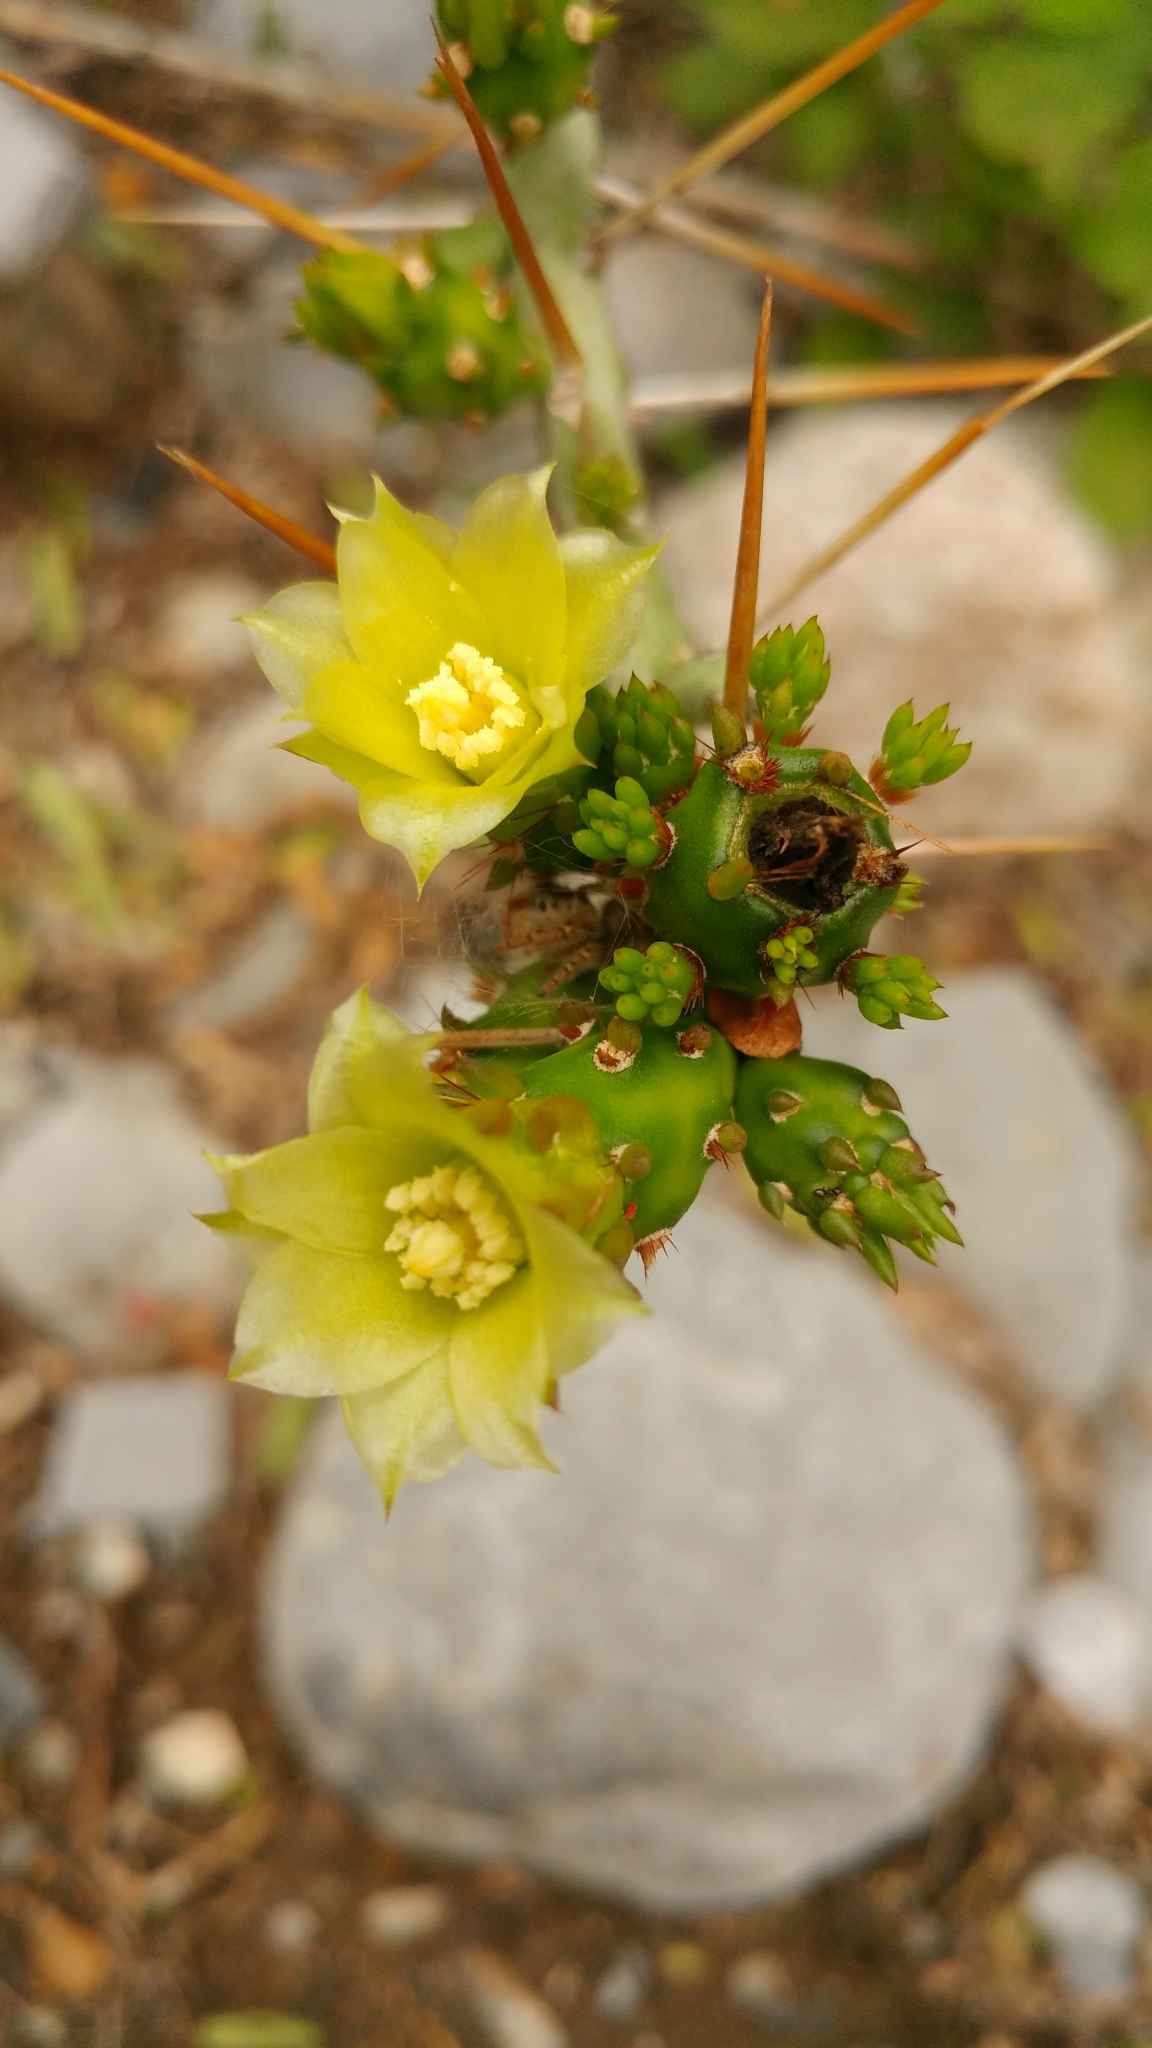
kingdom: Plantae
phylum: Tracheophyta
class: Magnoliopsida
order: Caryophyllales
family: Cactaceae
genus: Cylindropuntia
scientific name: Cylindropuntia leptocaulis
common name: Christmas cactus
